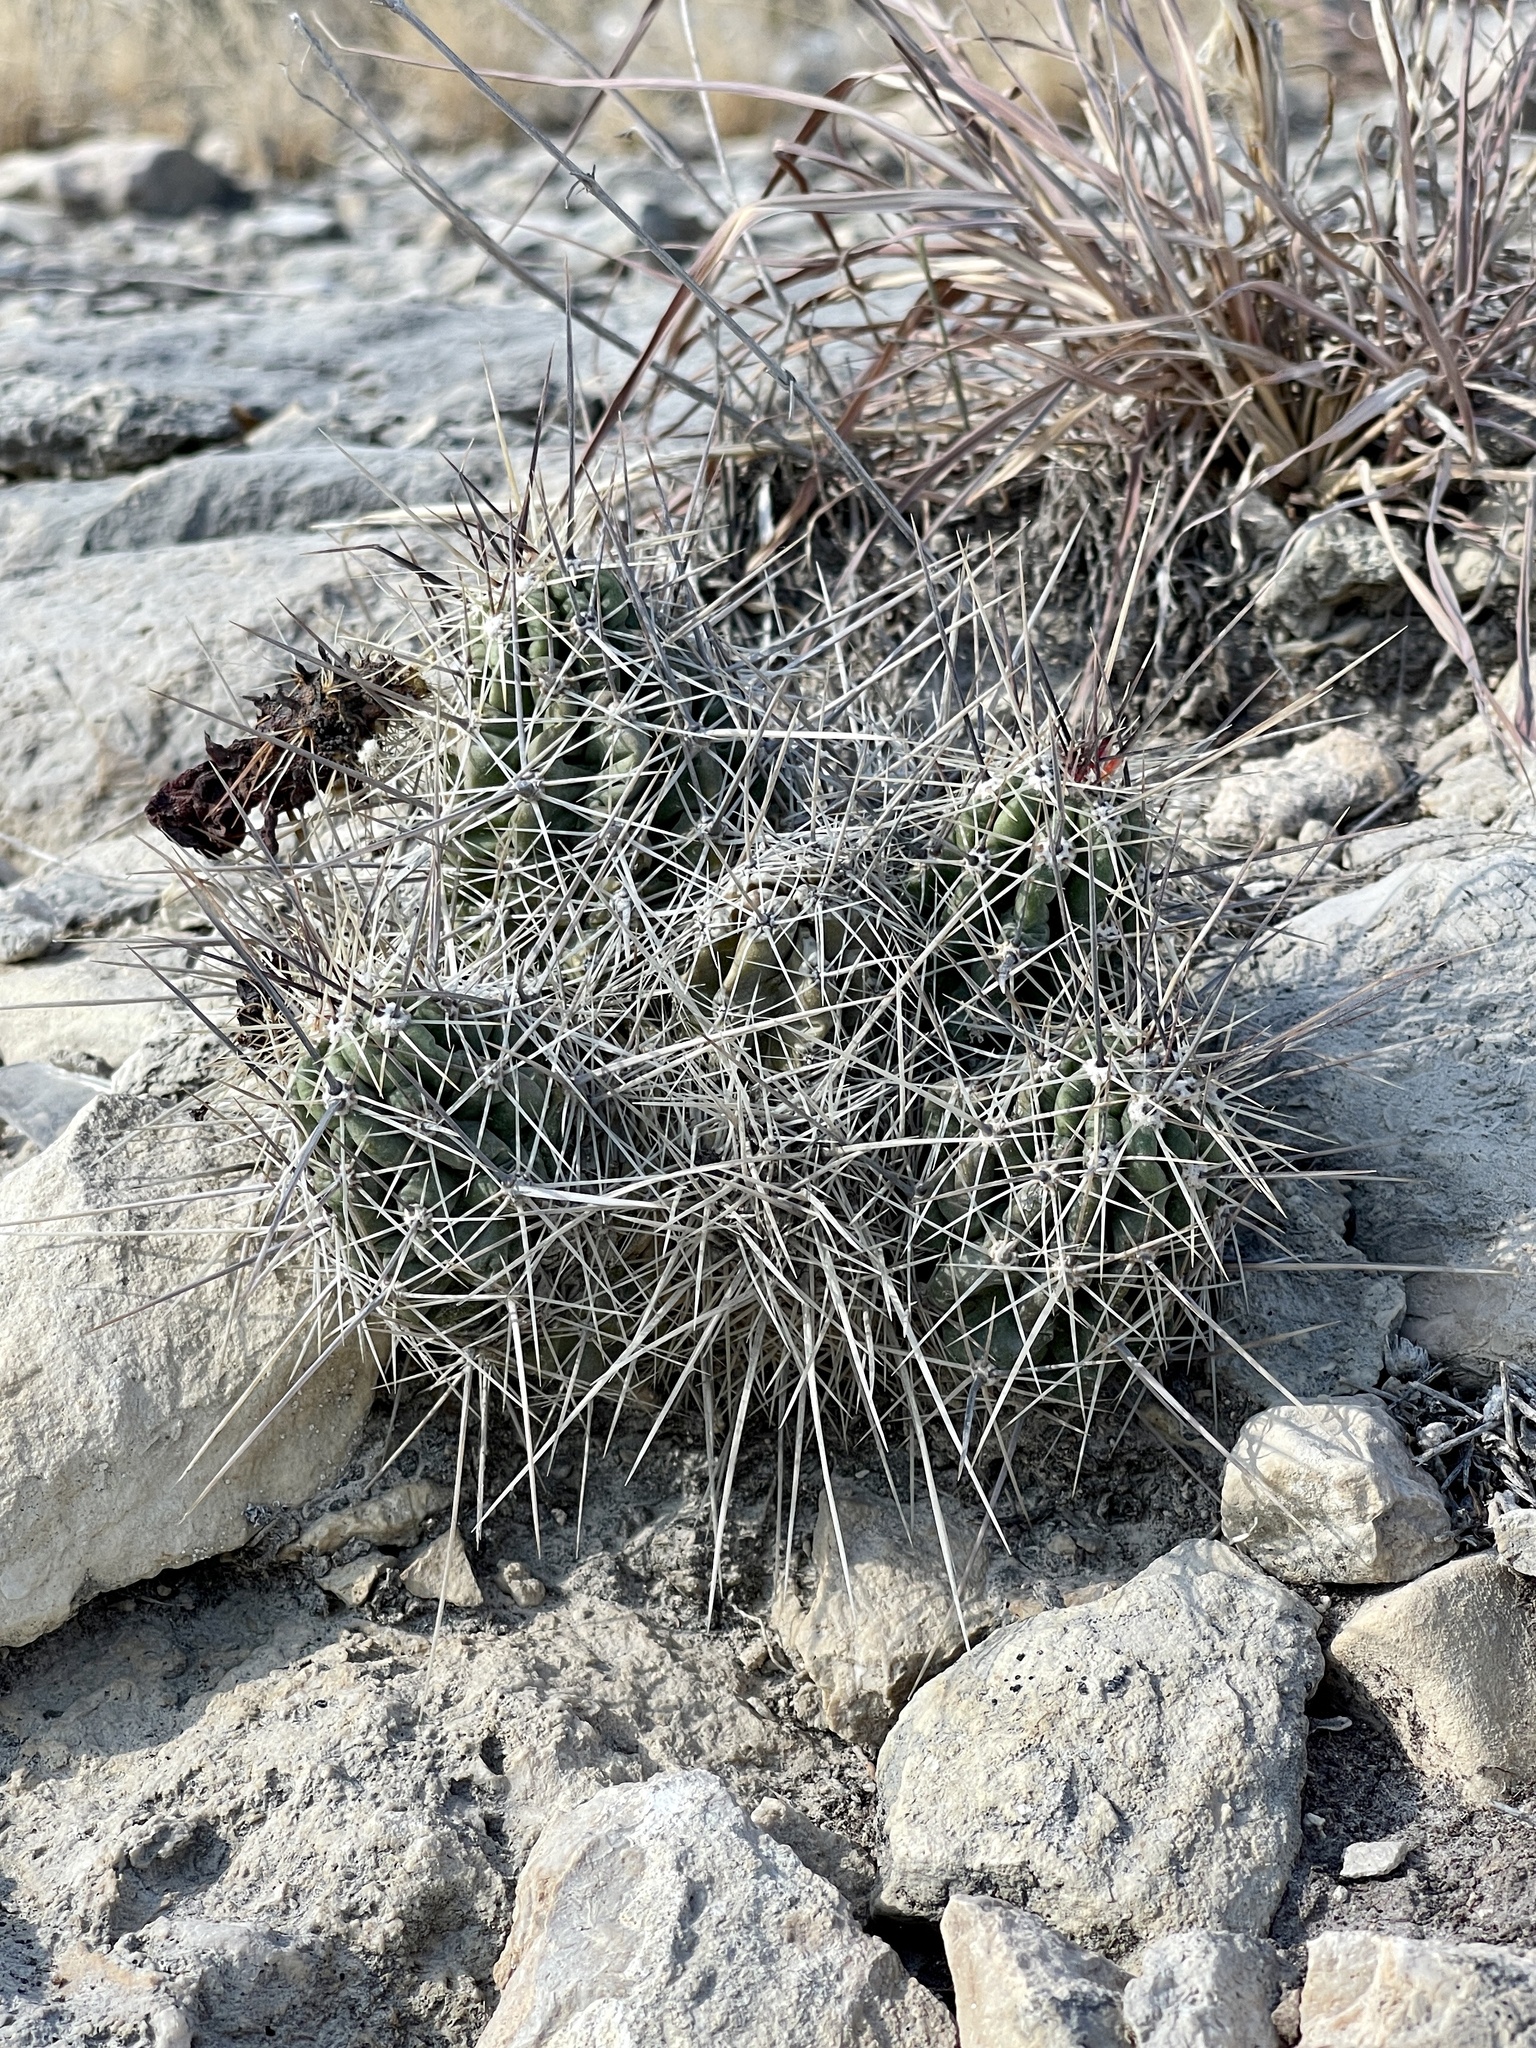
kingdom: Plantae
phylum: Tracheophyta
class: Magnoliopsida
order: Caryophyllales
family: Cactaceae
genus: Echinocereus
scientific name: Echinocereus enneacanthus
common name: Pitaya
